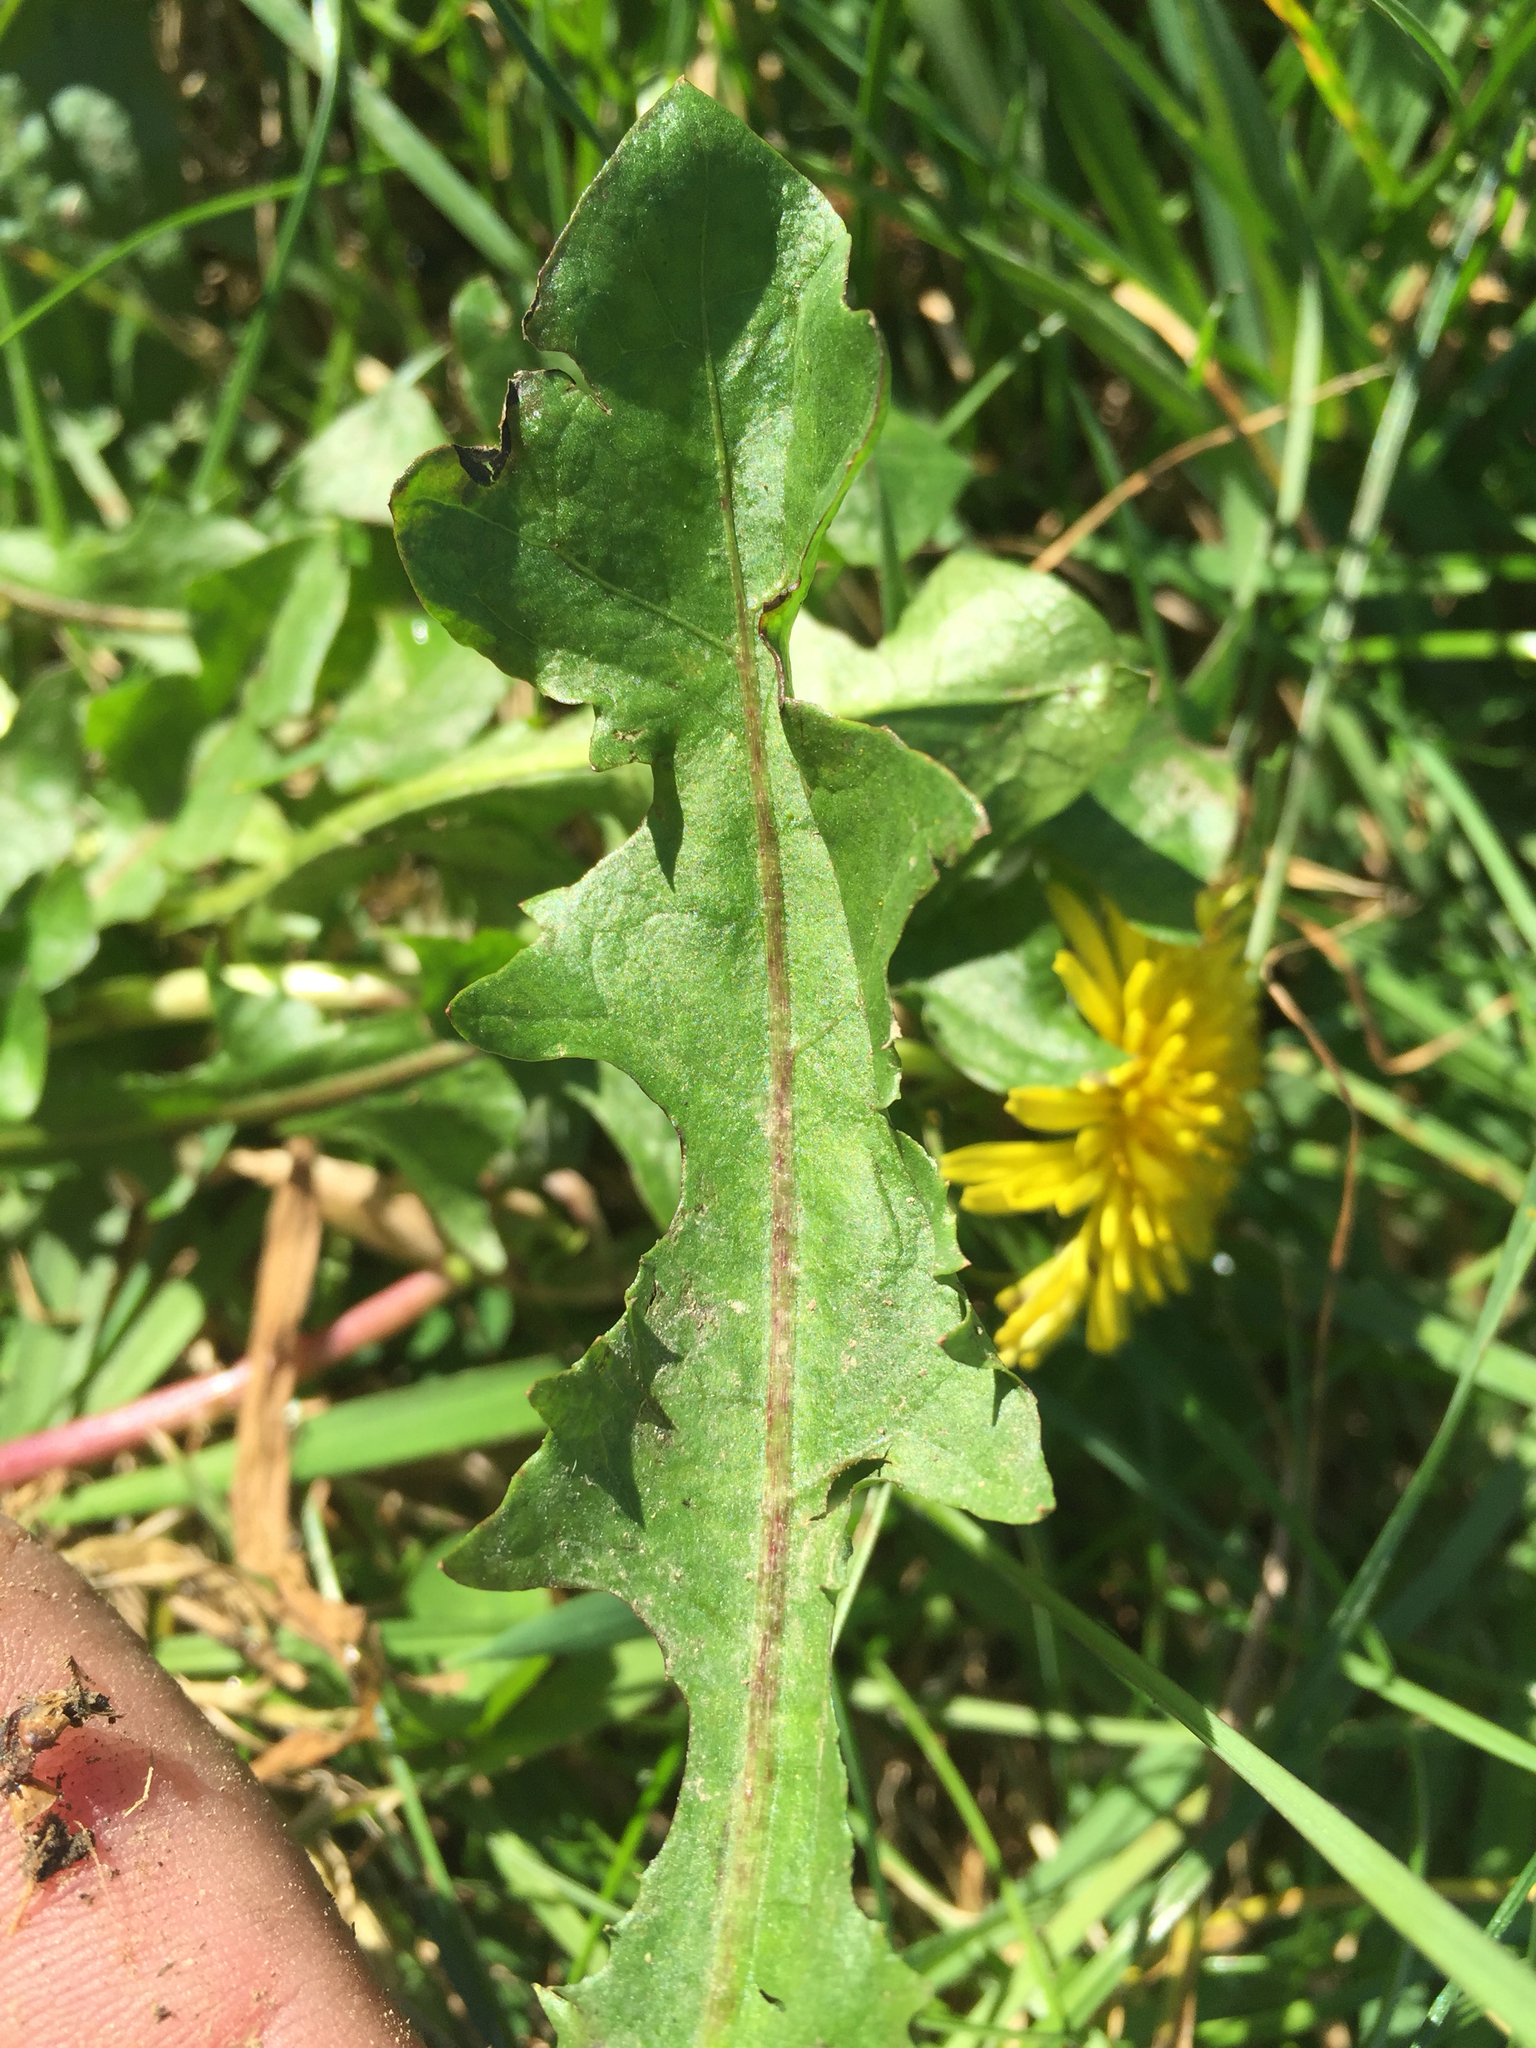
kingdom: Plantae
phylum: Tracheophyta
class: Magnoliopsida
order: Asterales
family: Asteraceae
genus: Taraxacum
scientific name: Taraxacum officinale
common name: Common dandelion
